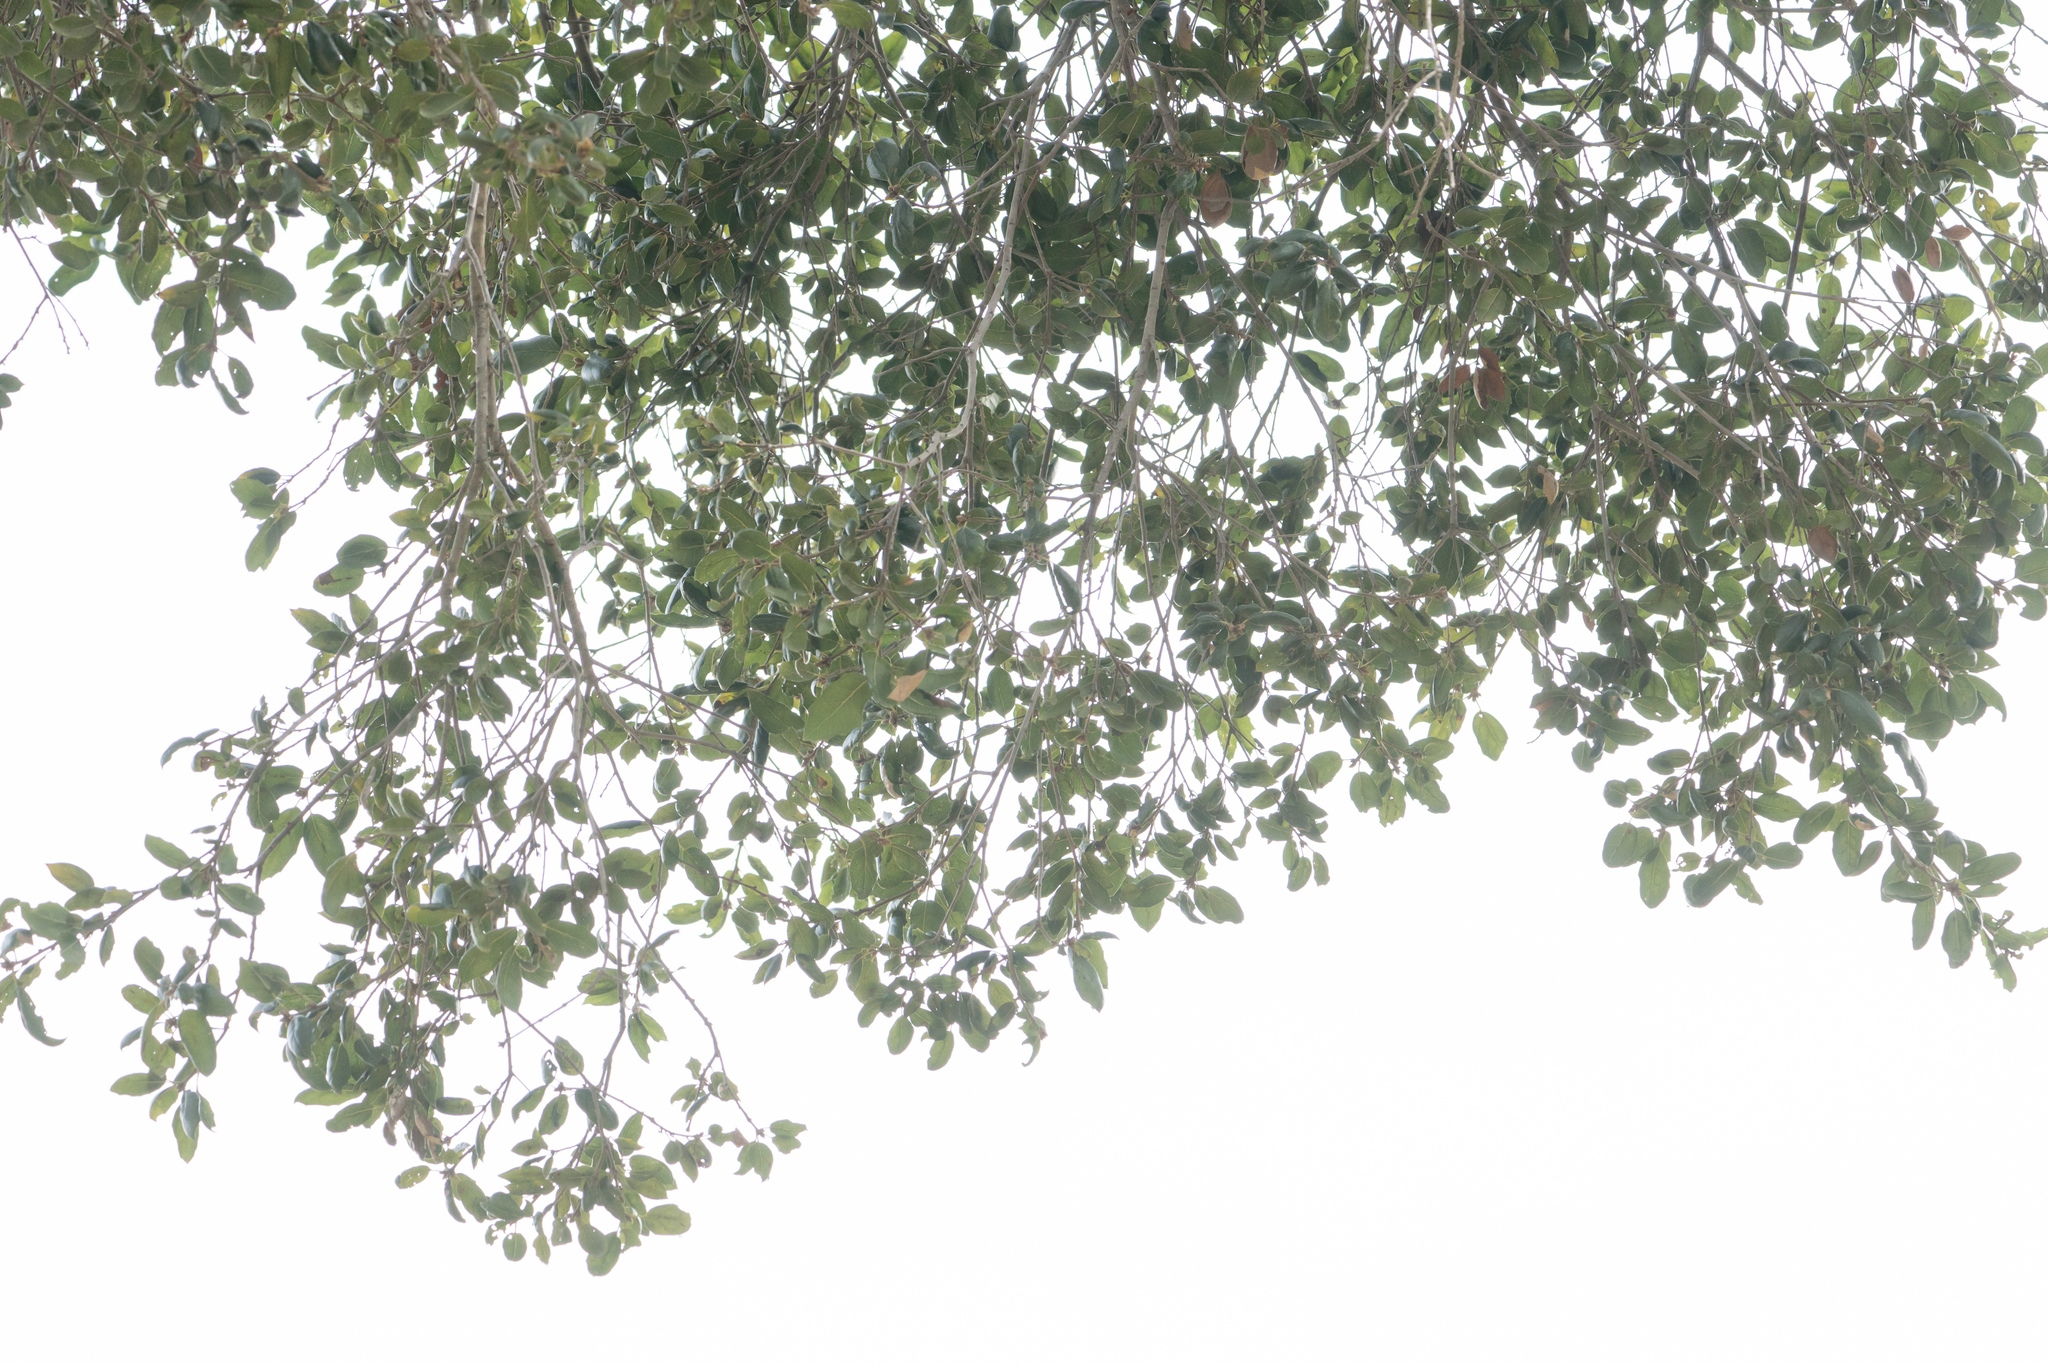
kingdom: Plantae
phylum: Tracheophyta
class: Magnoliopsida
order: Fagales
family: Fagaceae
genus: Quercus
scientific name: Quercus agrifolia
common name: California live oak
